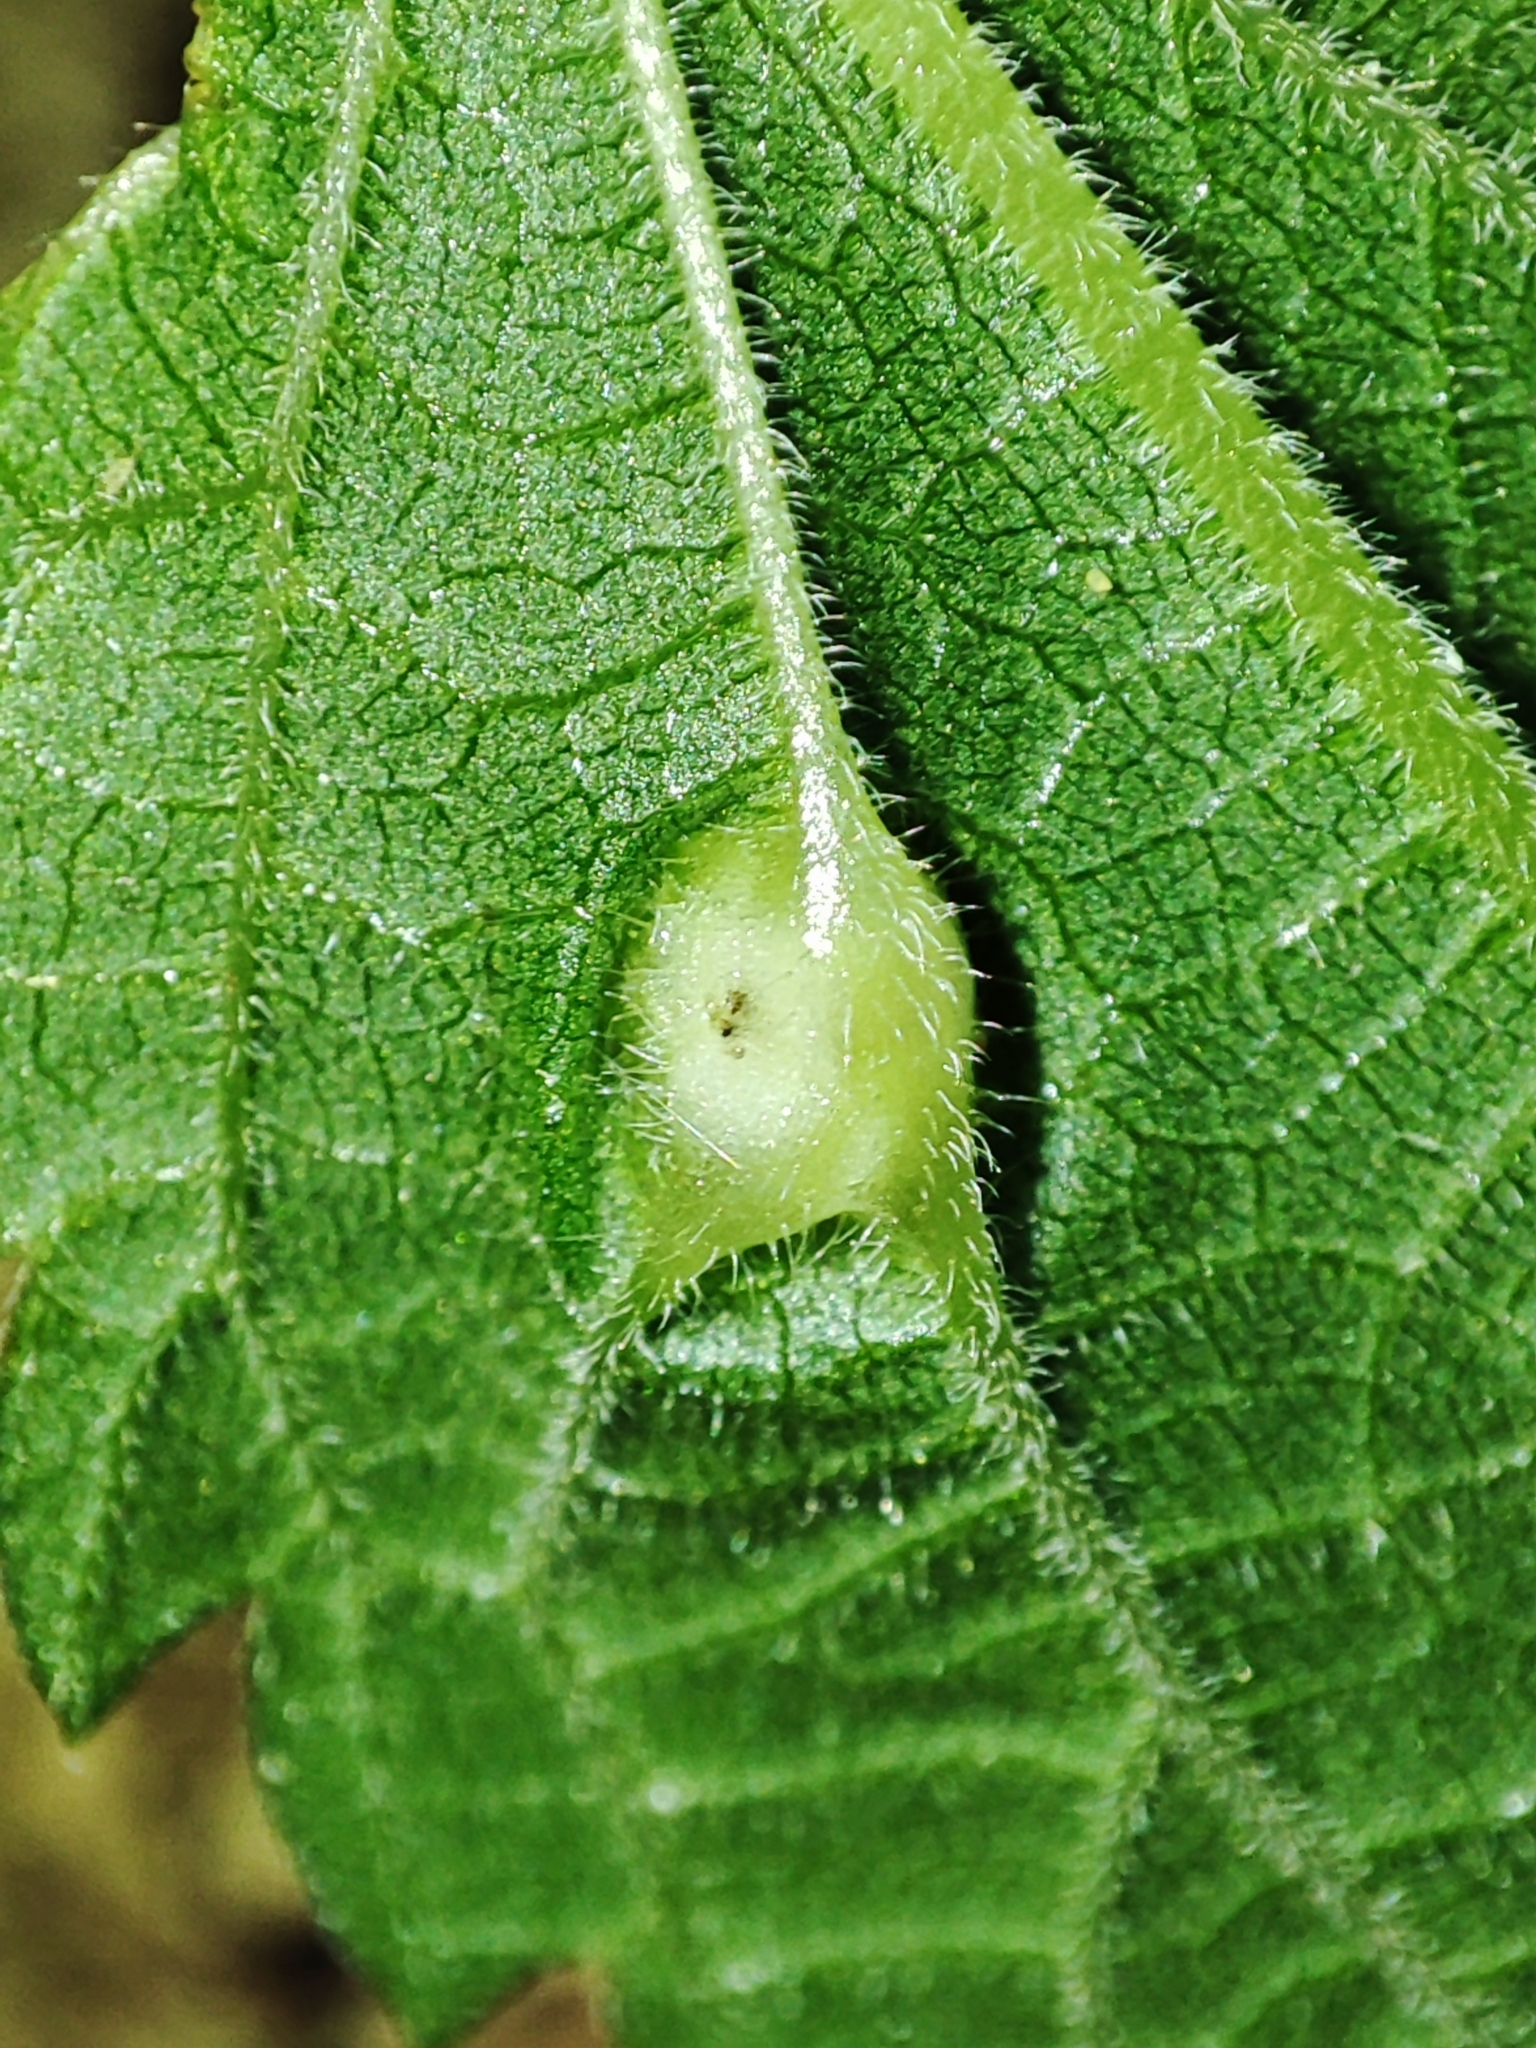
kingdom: Animalia
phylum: Arthropoda
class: Insecta
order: Diptera
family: Cecidomyiidae
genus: Dasineura
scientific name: Dasineura urticae
